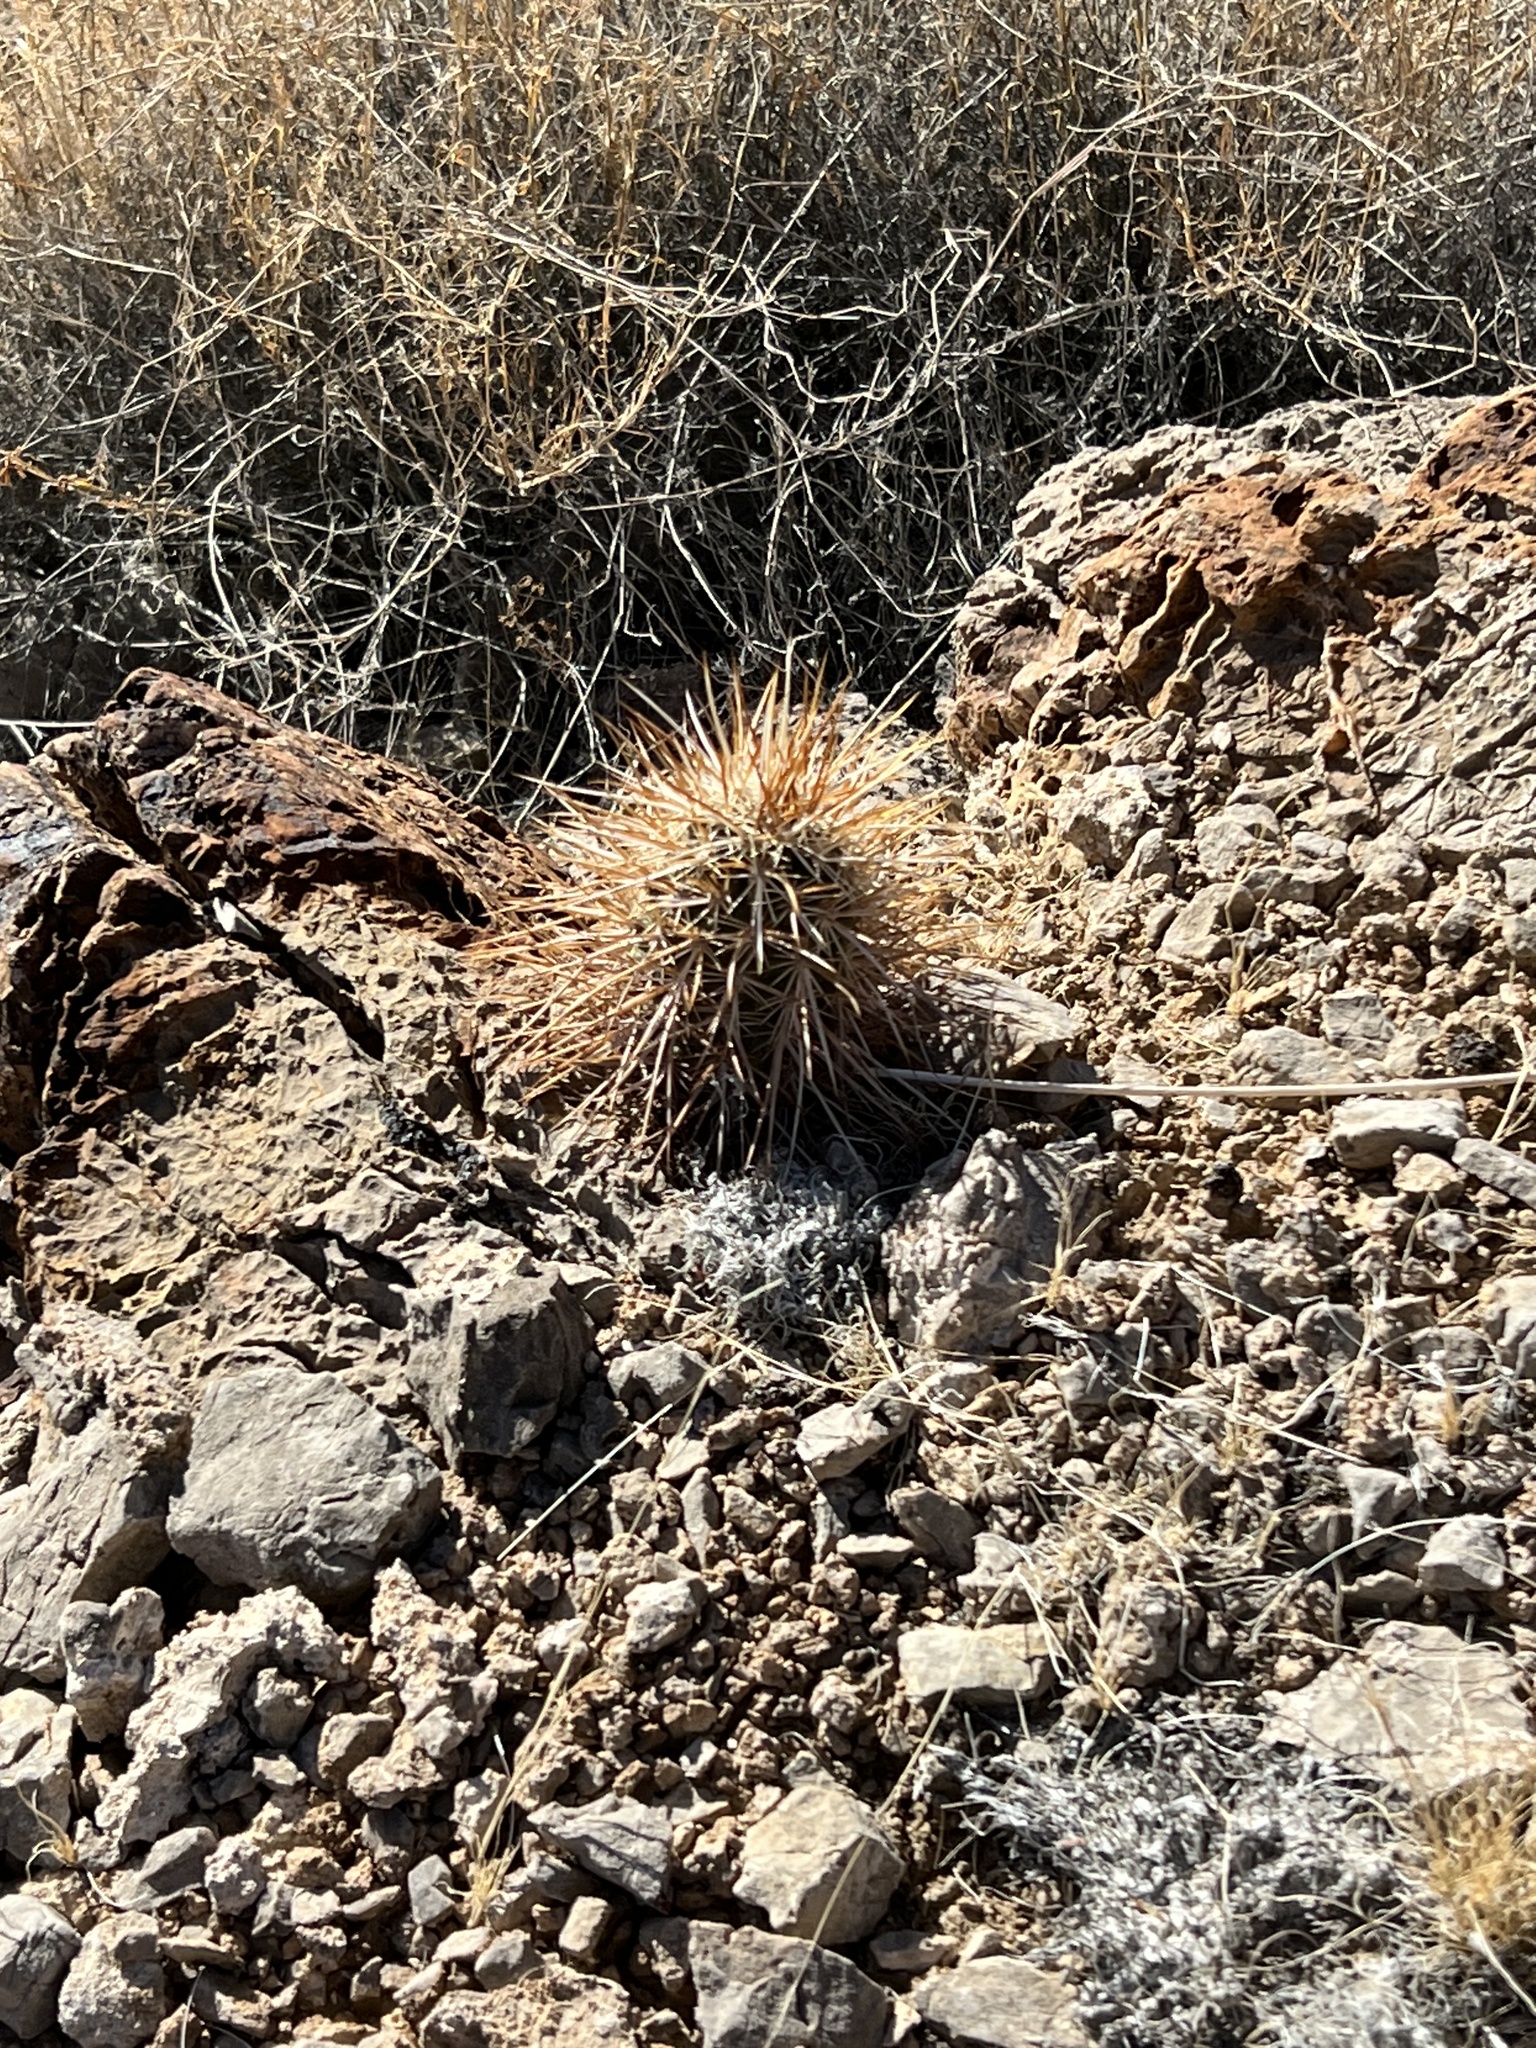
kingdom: Plantae
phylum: Tracheophyta
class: Magnoliopsida
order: Caryophyllales
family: Cactaceae
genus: Echinocereus
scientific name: Echinocereus engelmannii
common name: Engelmann's hedgehog cactus
